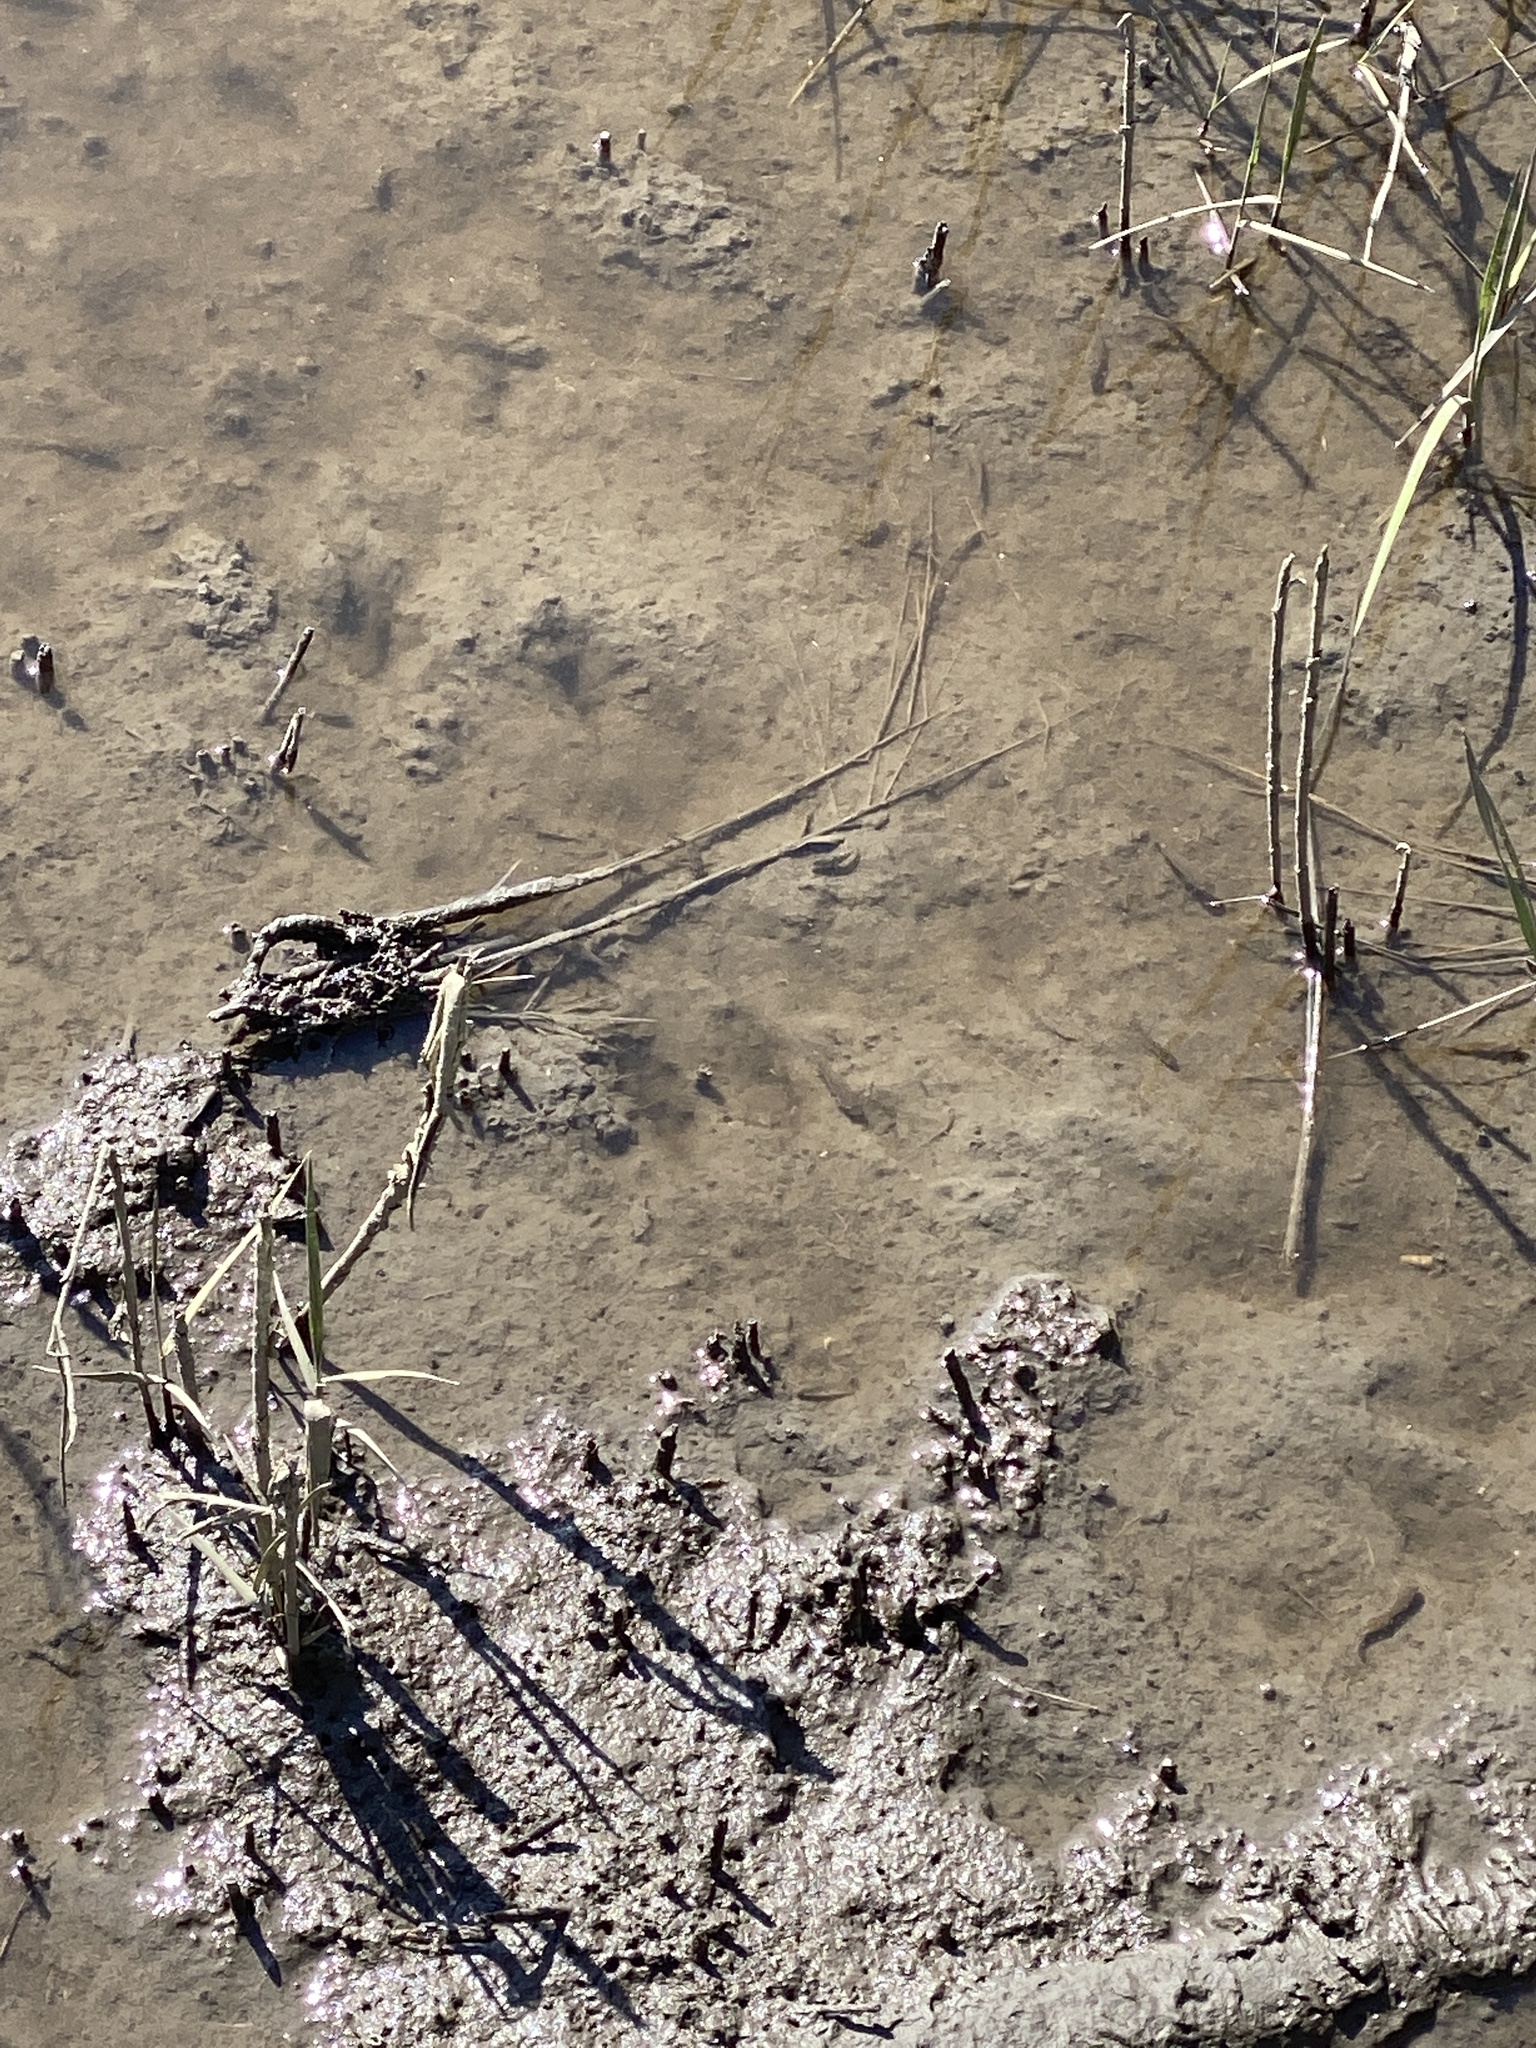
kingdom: Animalia
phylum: Chordata
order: Cyprinodontiformes
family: Poeciliidae
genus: Gambusia
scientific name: Gambusia holbrooki
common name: Eastern mosquitofish
